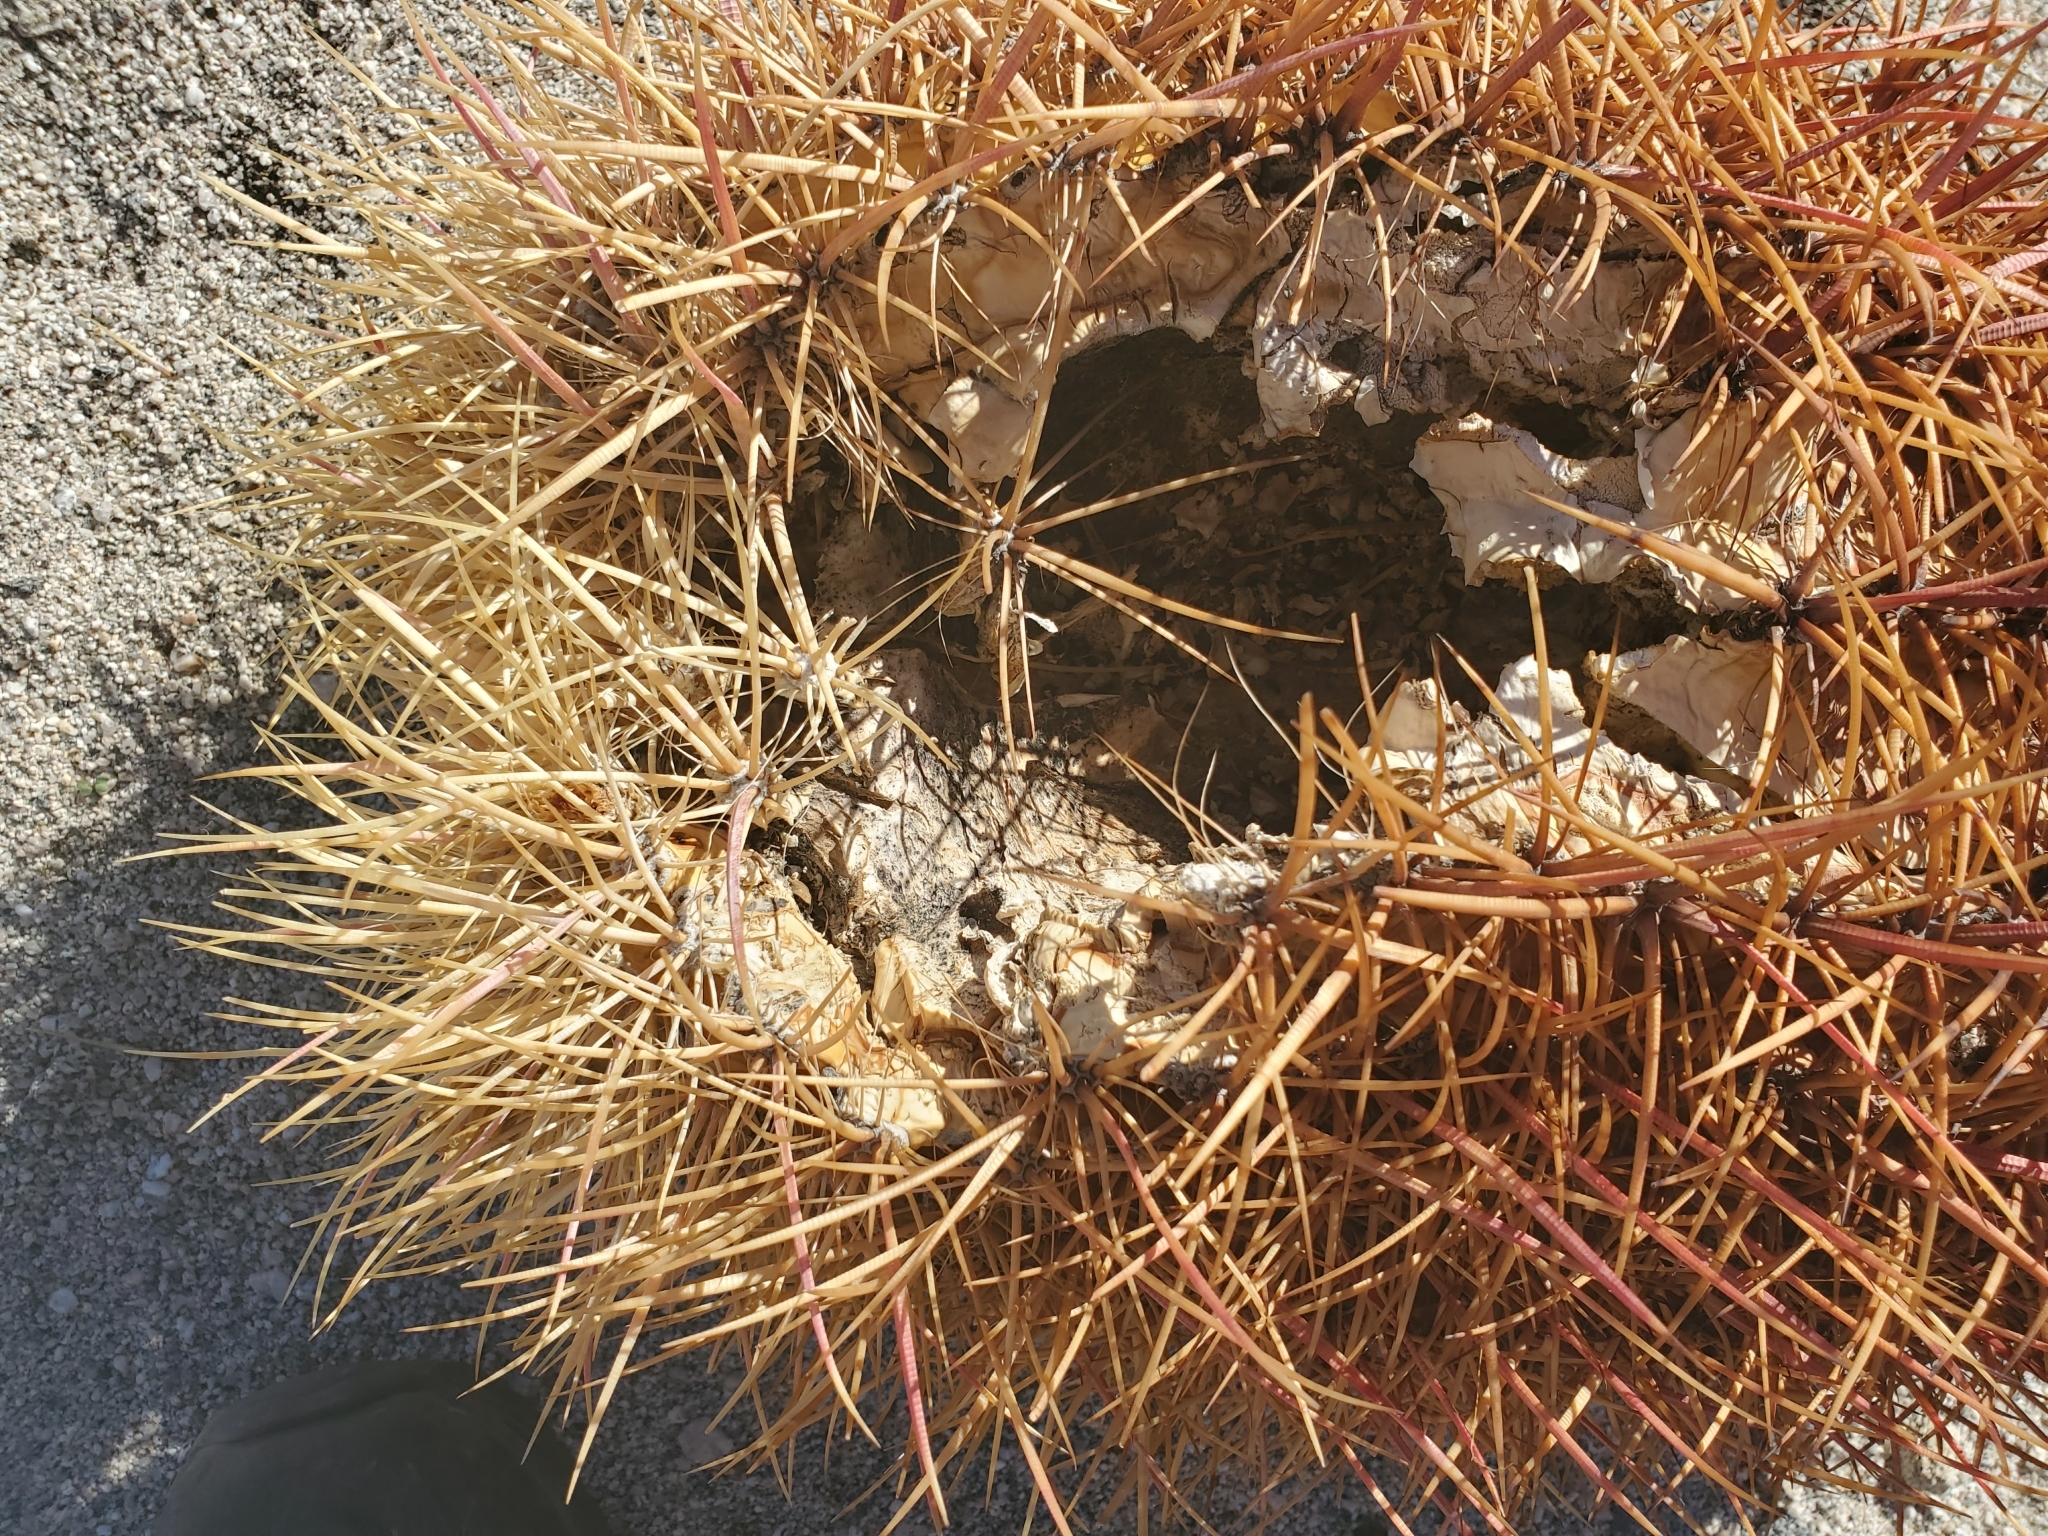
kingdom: Plantae
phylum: Tracheophyta
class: Magnoliopsida
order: Caryophyllales
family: Cactaceae
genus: Ferocactus
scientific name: Ferocactus cylindraceus
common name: California barrel cactus
